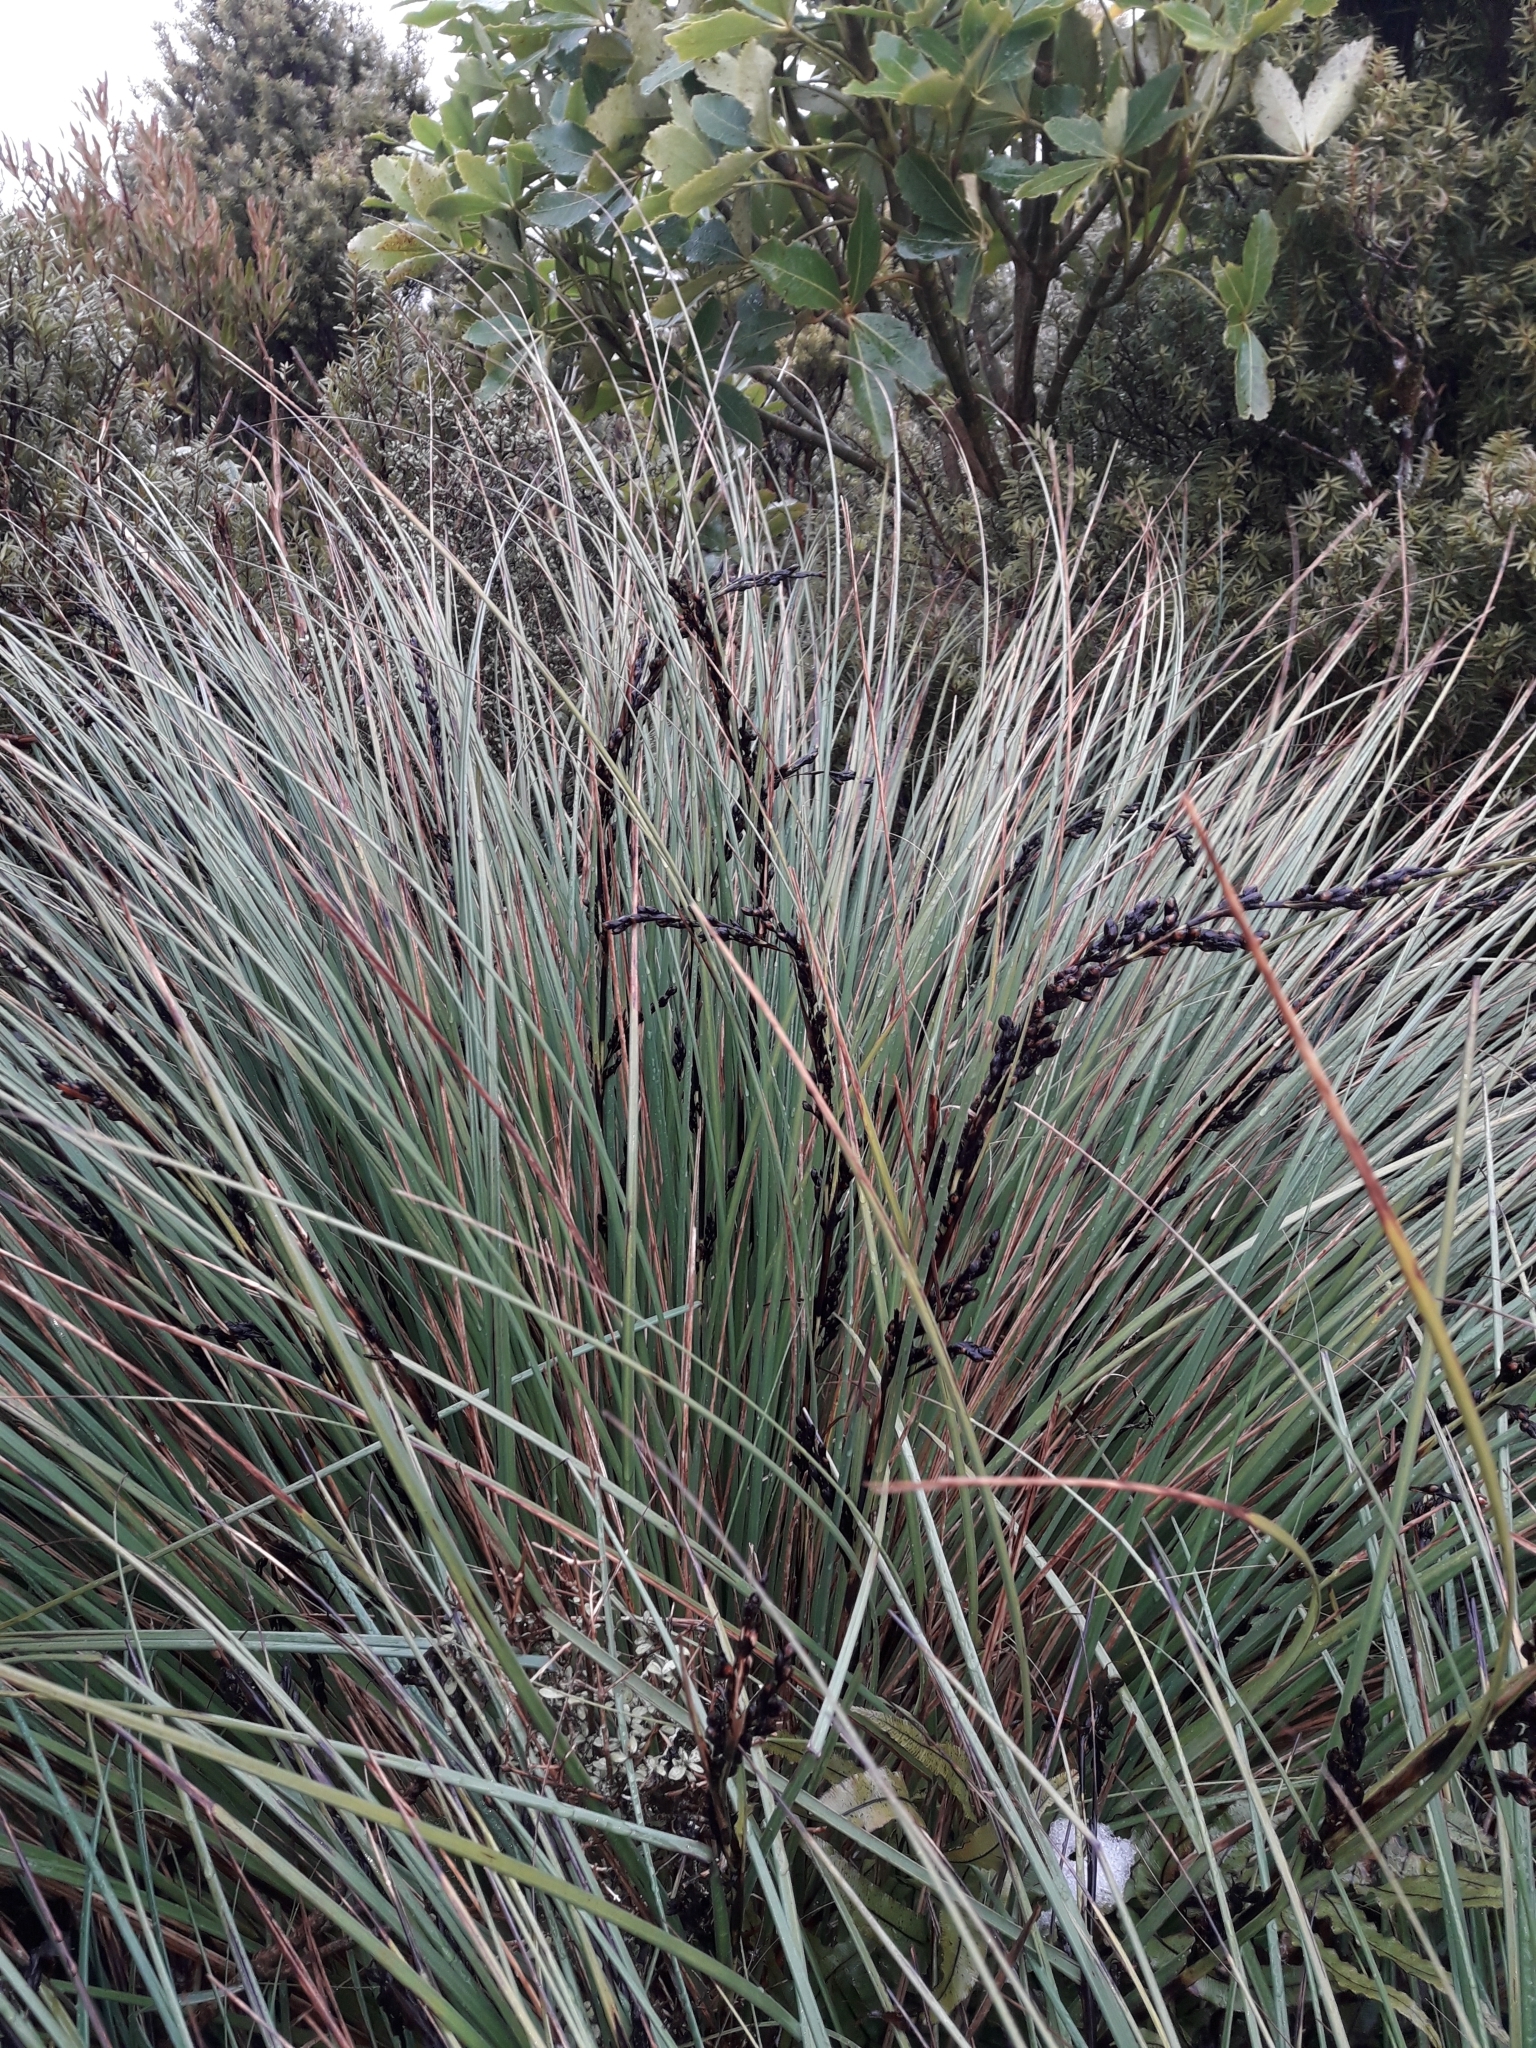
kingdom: Plantae
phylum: Tracheophyta
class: Liliopsida
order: Poales
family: Cyperaceae
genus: Gahnia
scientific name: Gahnia procera
